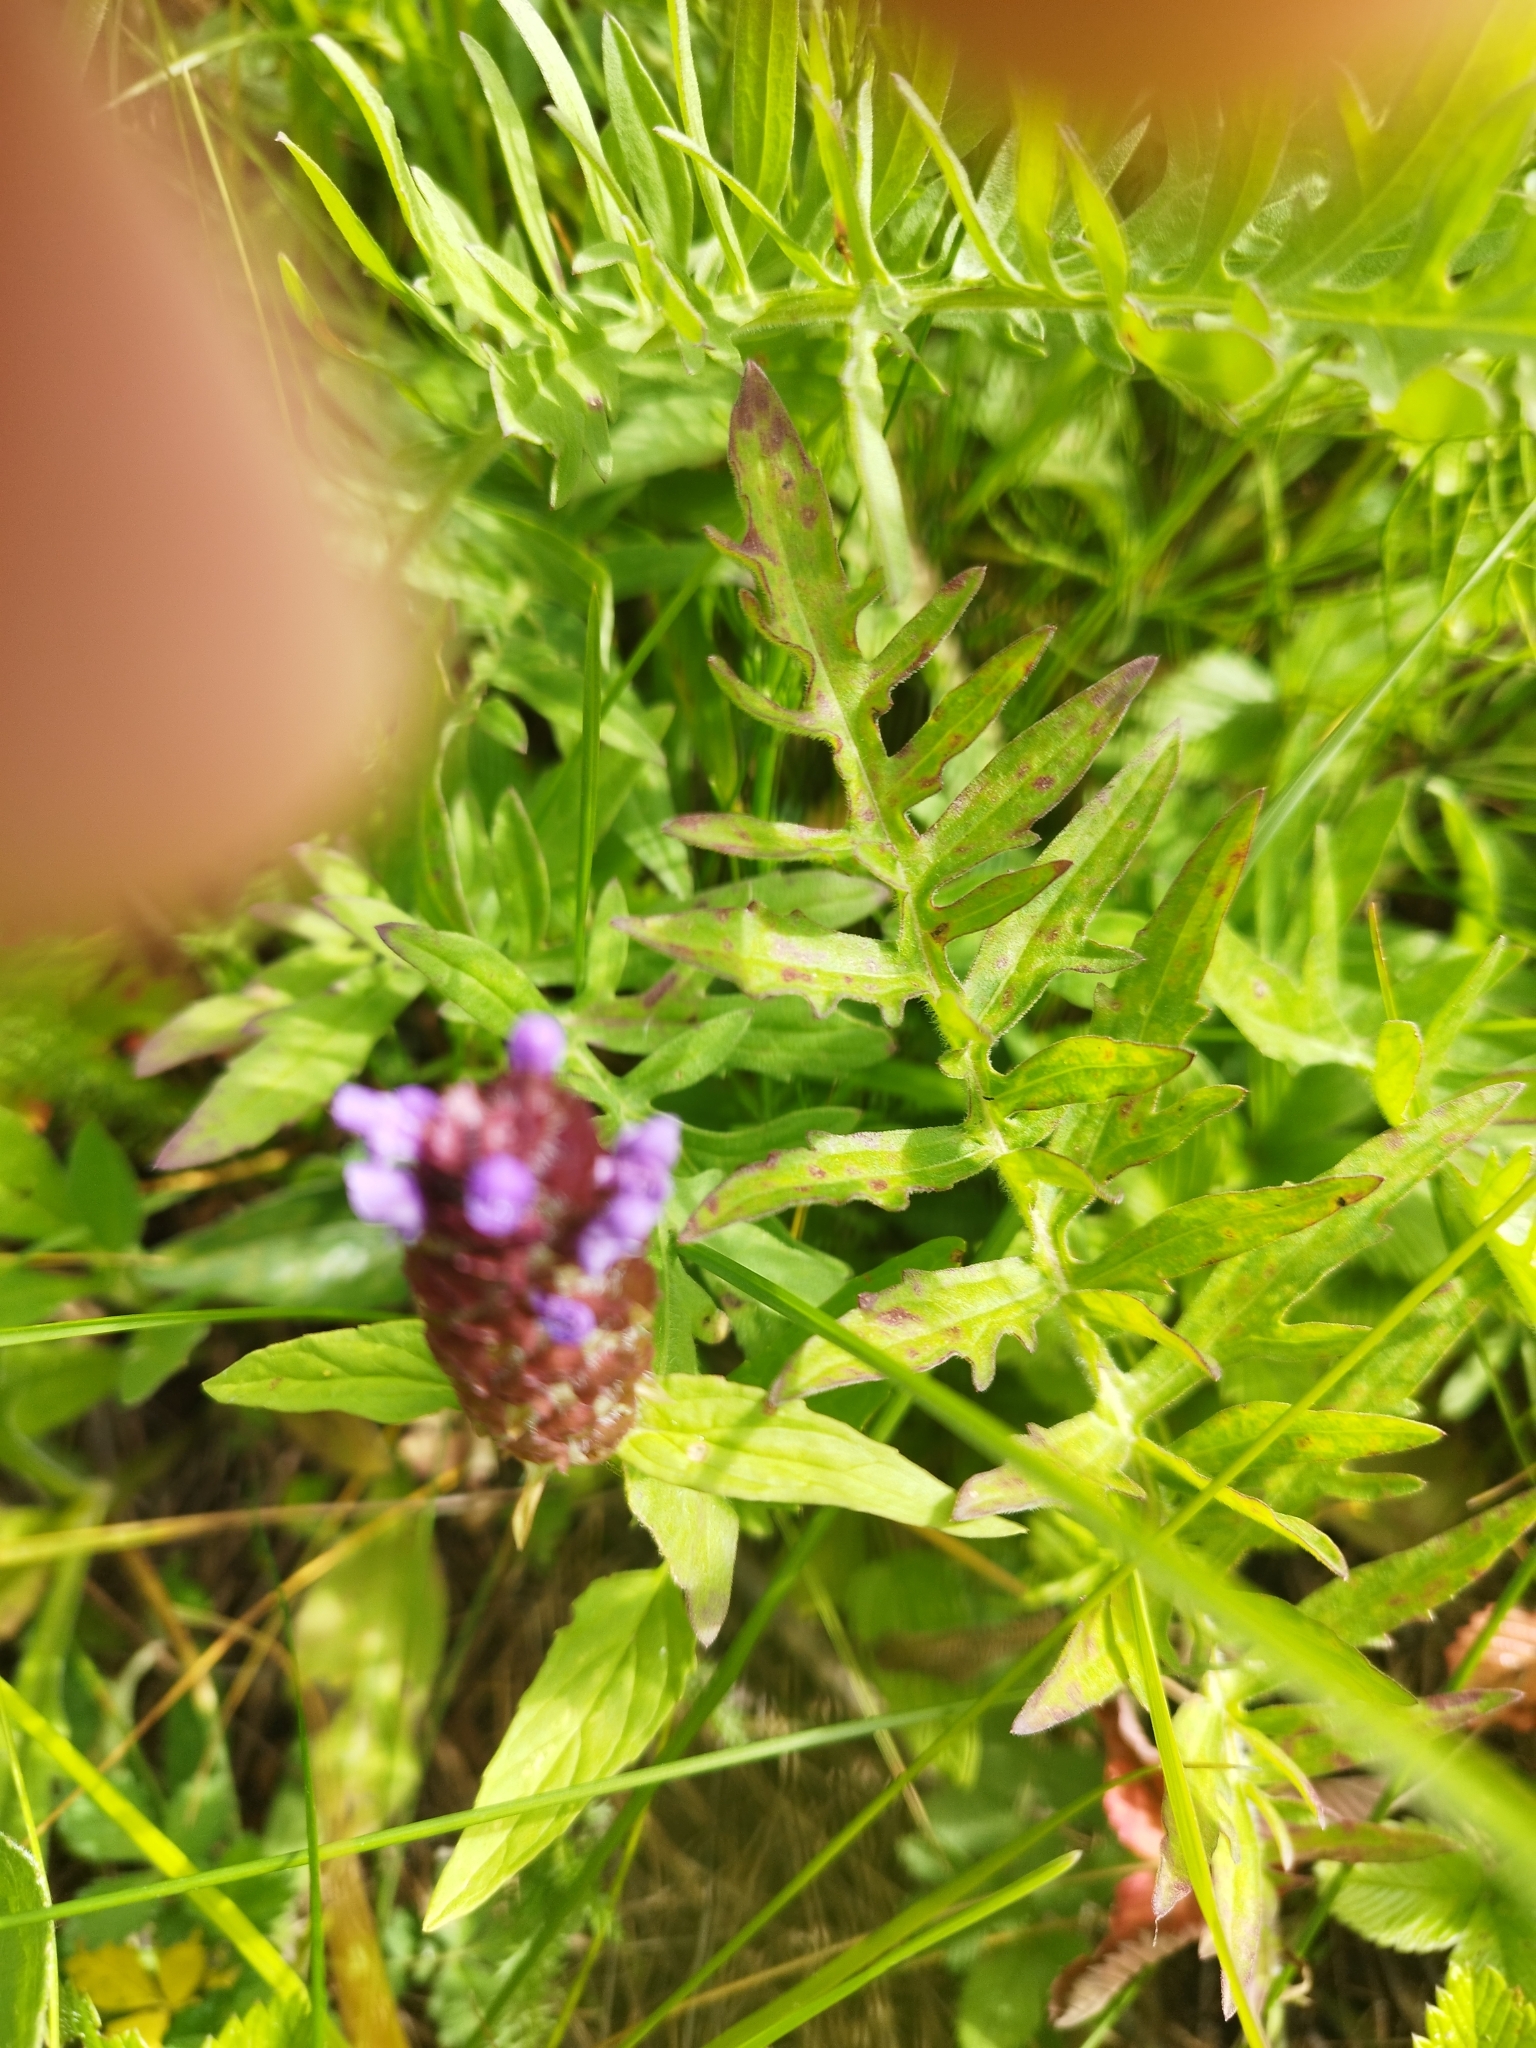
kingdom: Plantae
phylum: Tracheophyta
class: Magnoliopsida
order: Lamiales
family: Lamiaceae
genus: Prunella
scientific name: Prunella vulgaris
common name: Heal-all
